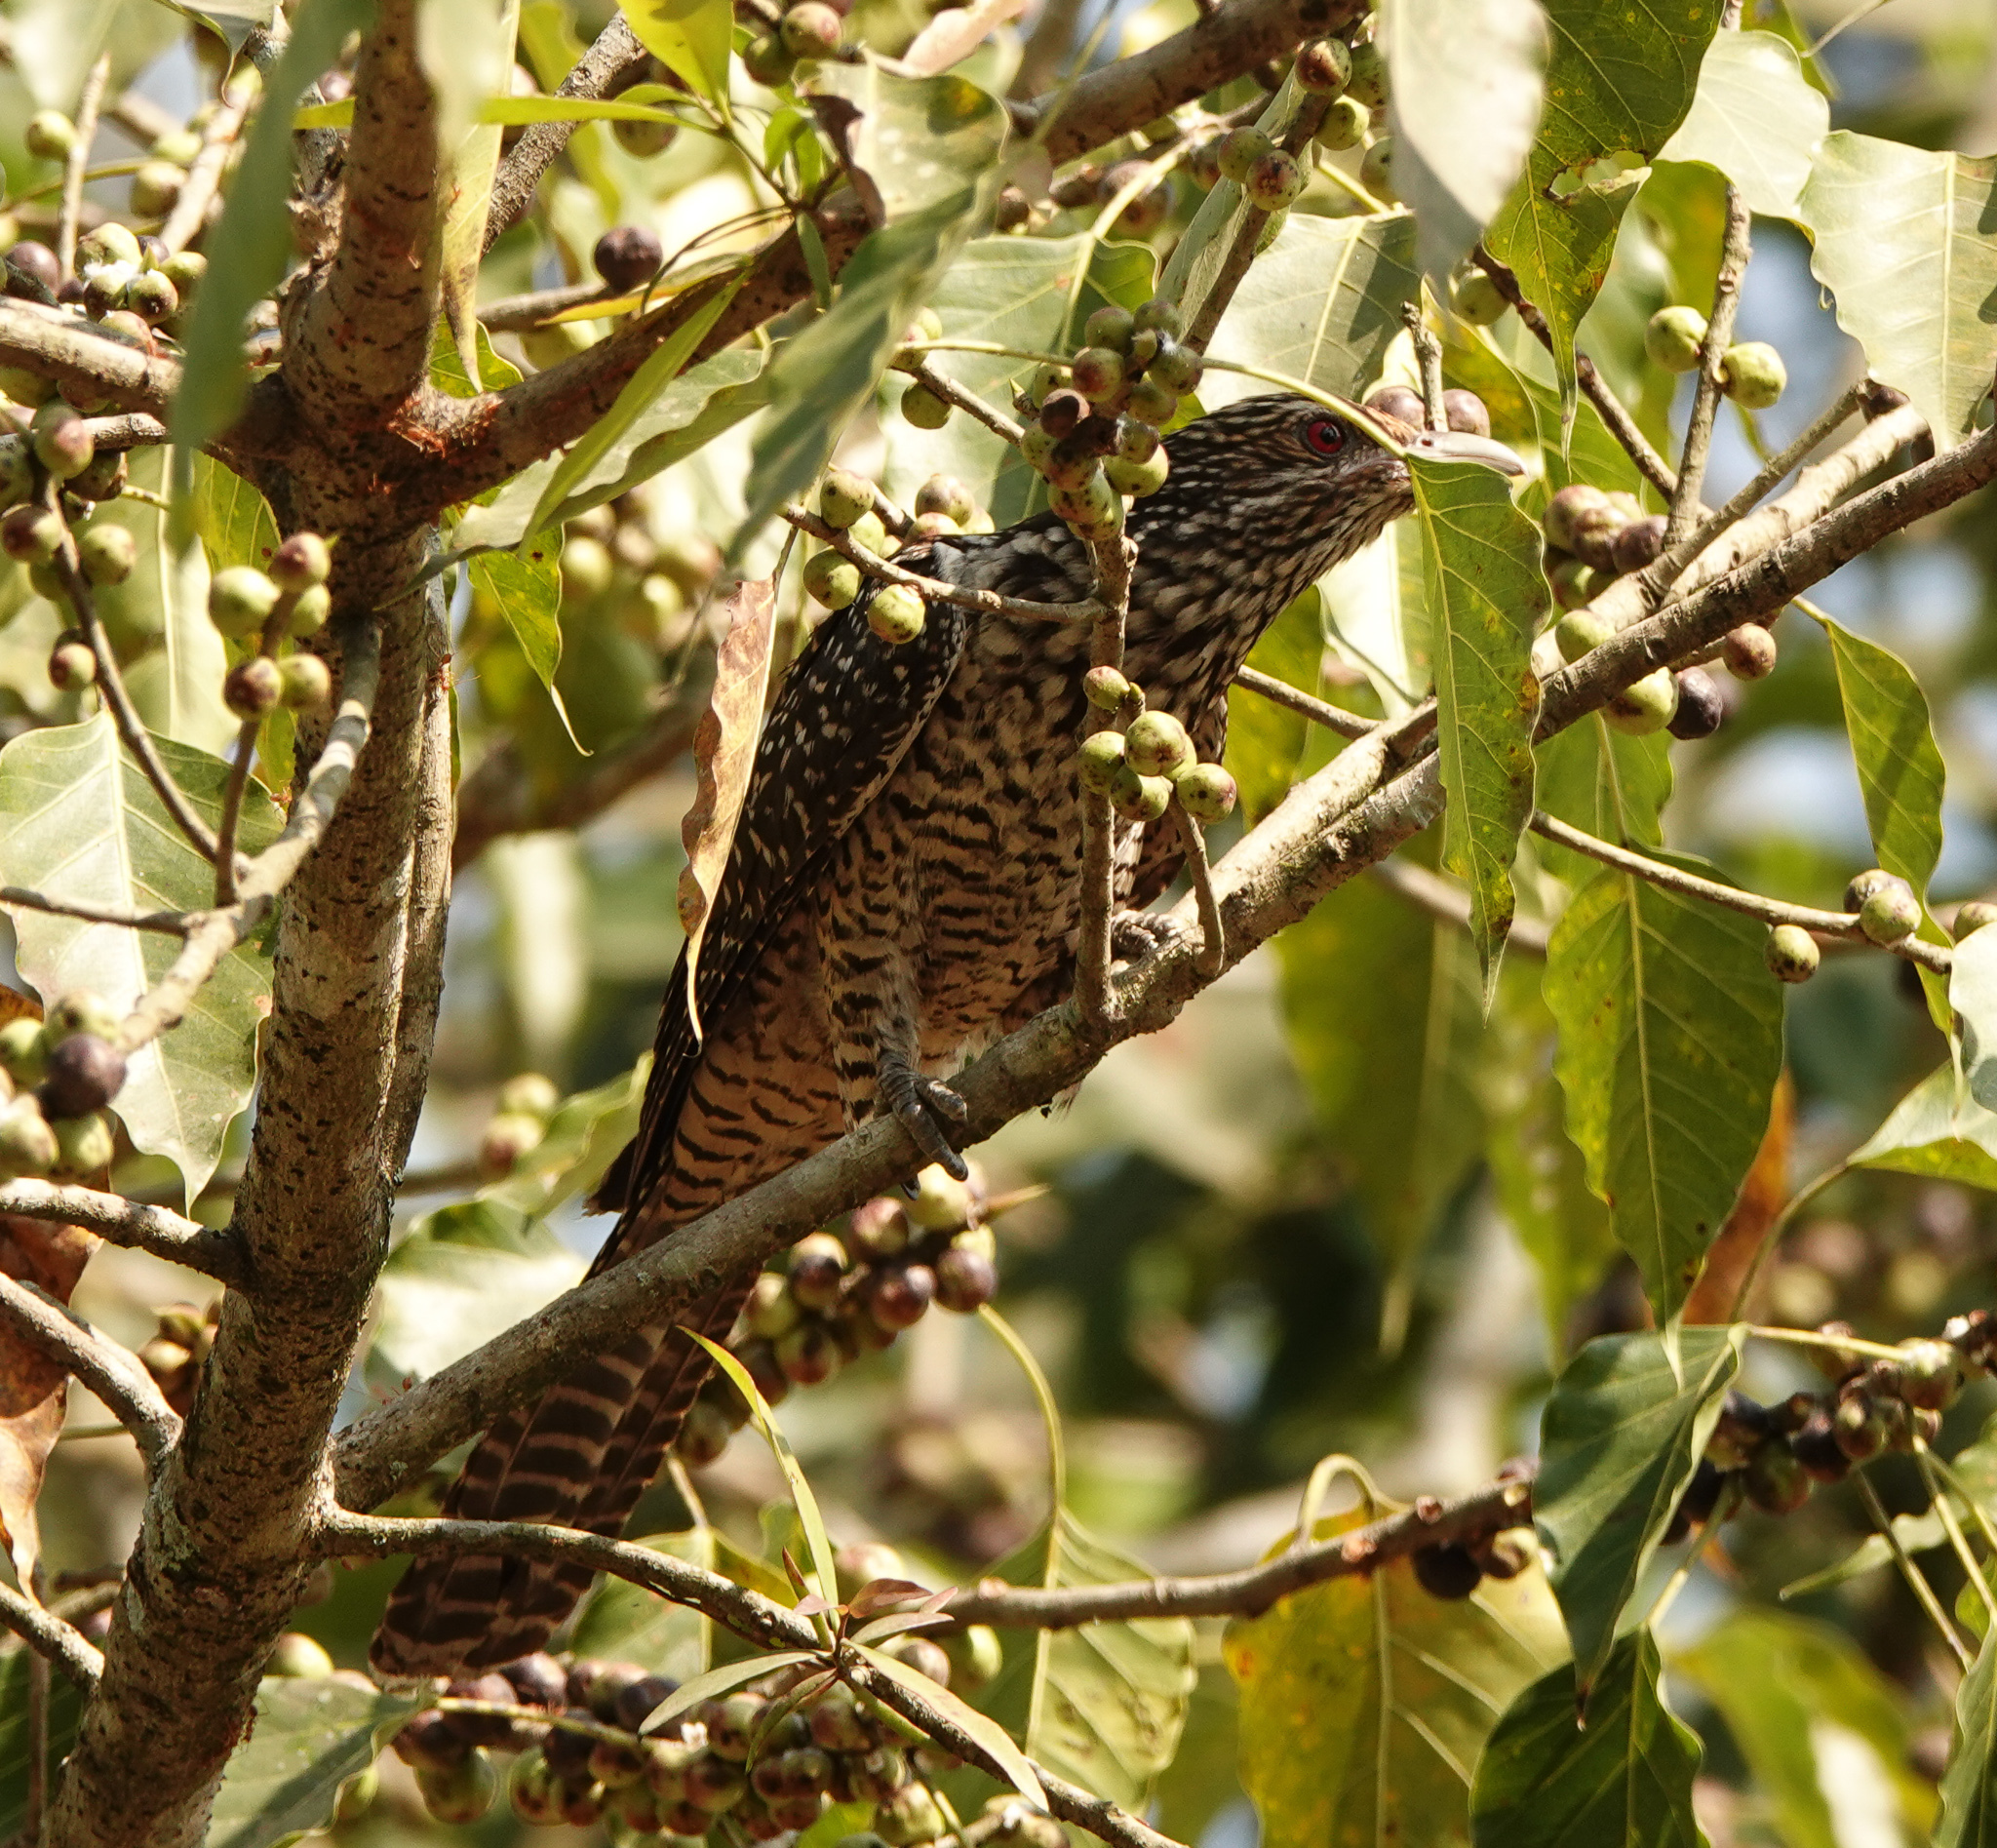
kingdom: Animalia
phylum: Chordata
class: Aves
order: Cuculiformes
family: Cuculidae
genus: Eudynamys
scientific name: Eudynamys scolopaceus
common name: Asian koel
